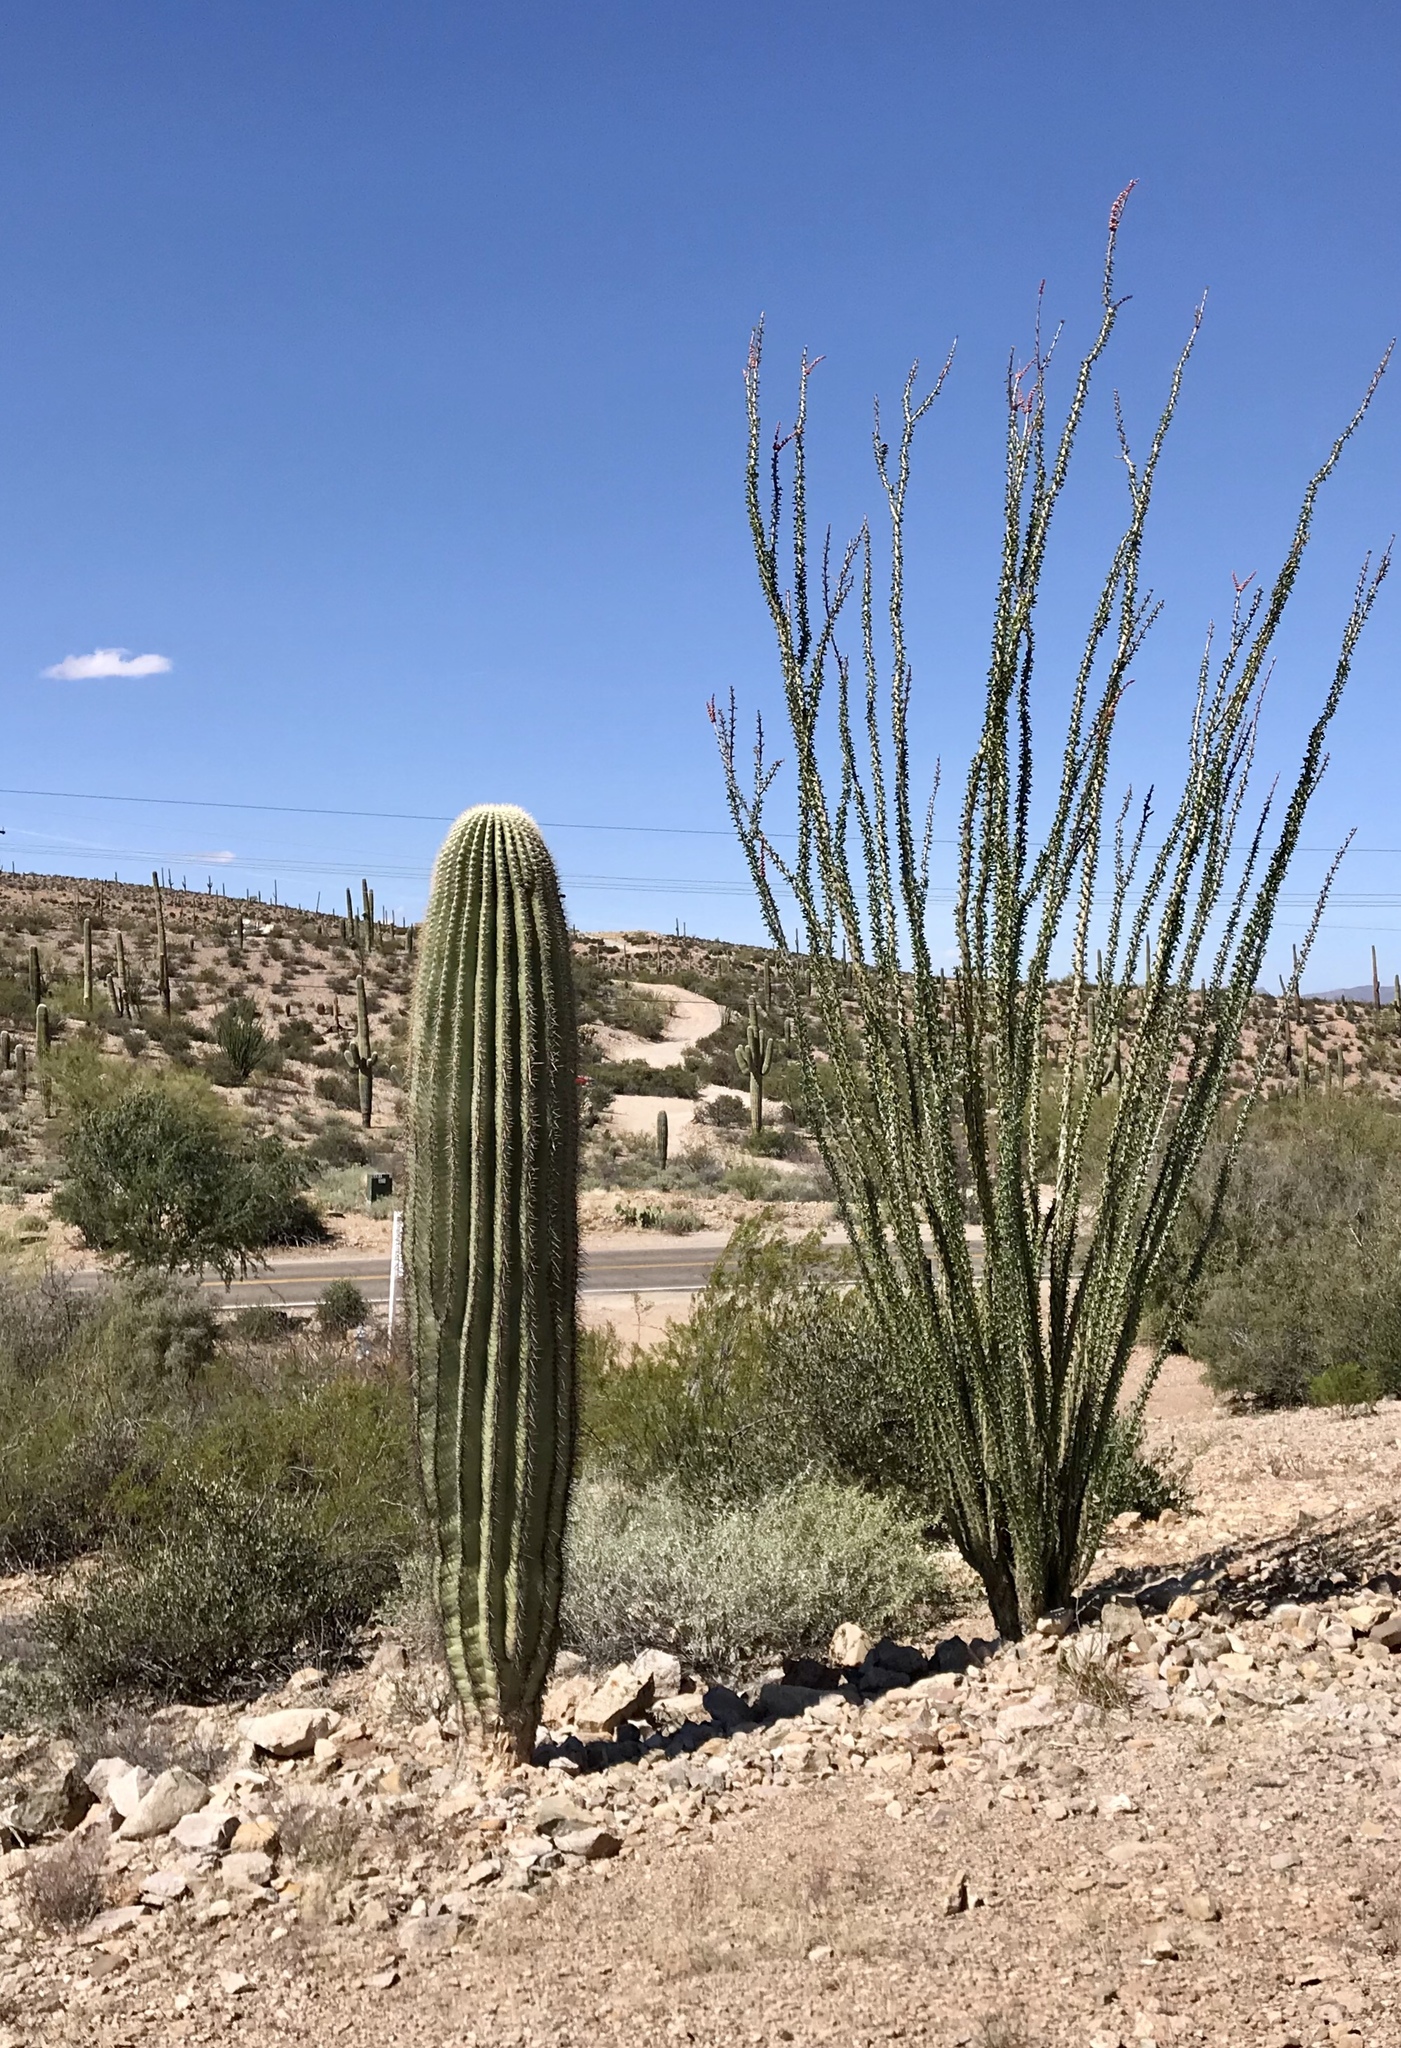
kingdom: Plantae
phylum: Tracheophyta
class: Magnoliopsida
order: Caryophyllales
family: Cactaceae
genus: Carnegiea
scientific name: Carnegiea gigantea
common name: Saguaro
